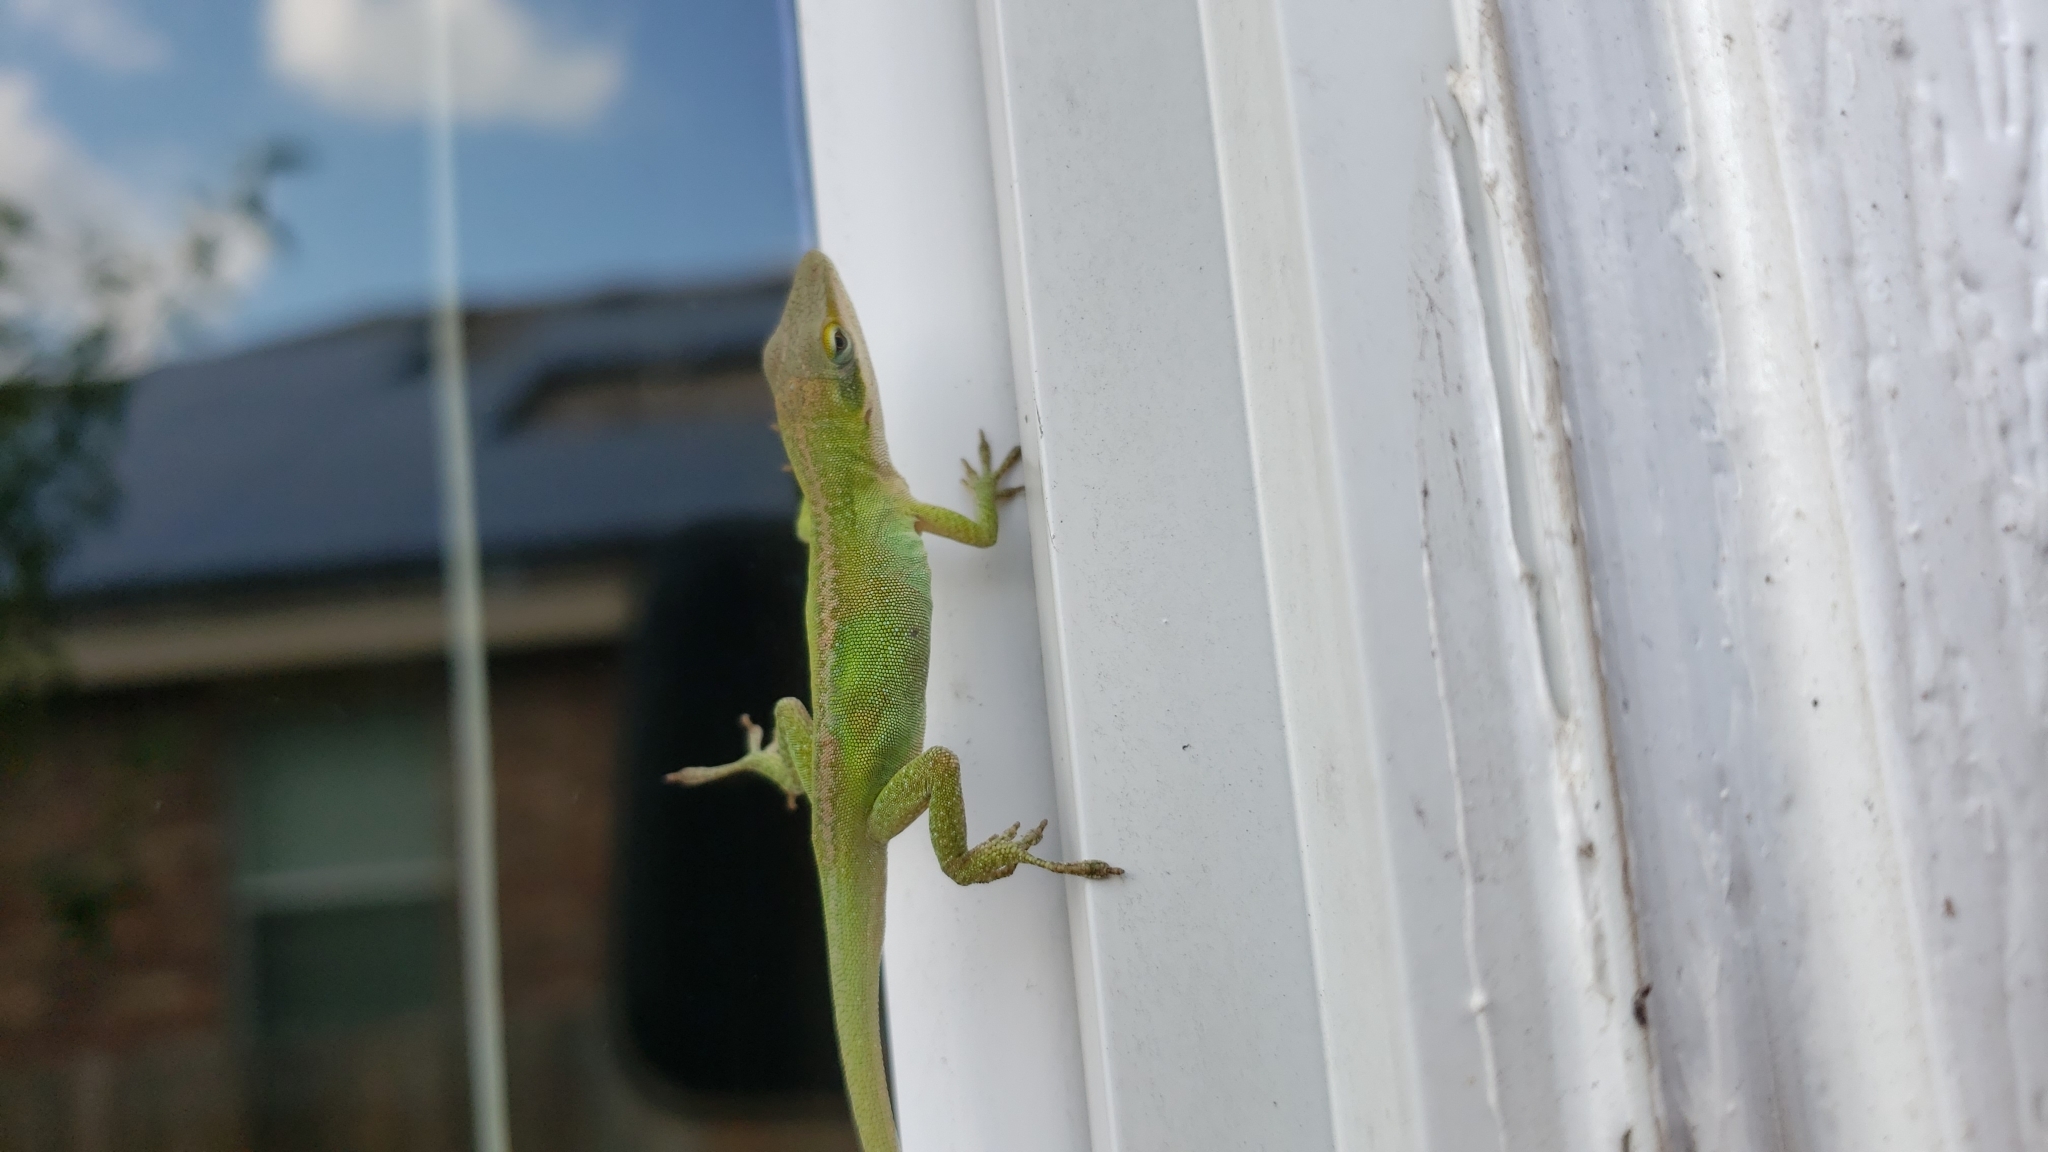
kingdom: Animalia
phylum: Chordata
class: Squamata
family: Dactyloidae
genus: Anolis
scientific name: Anolis carolinensis
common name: Green anole
